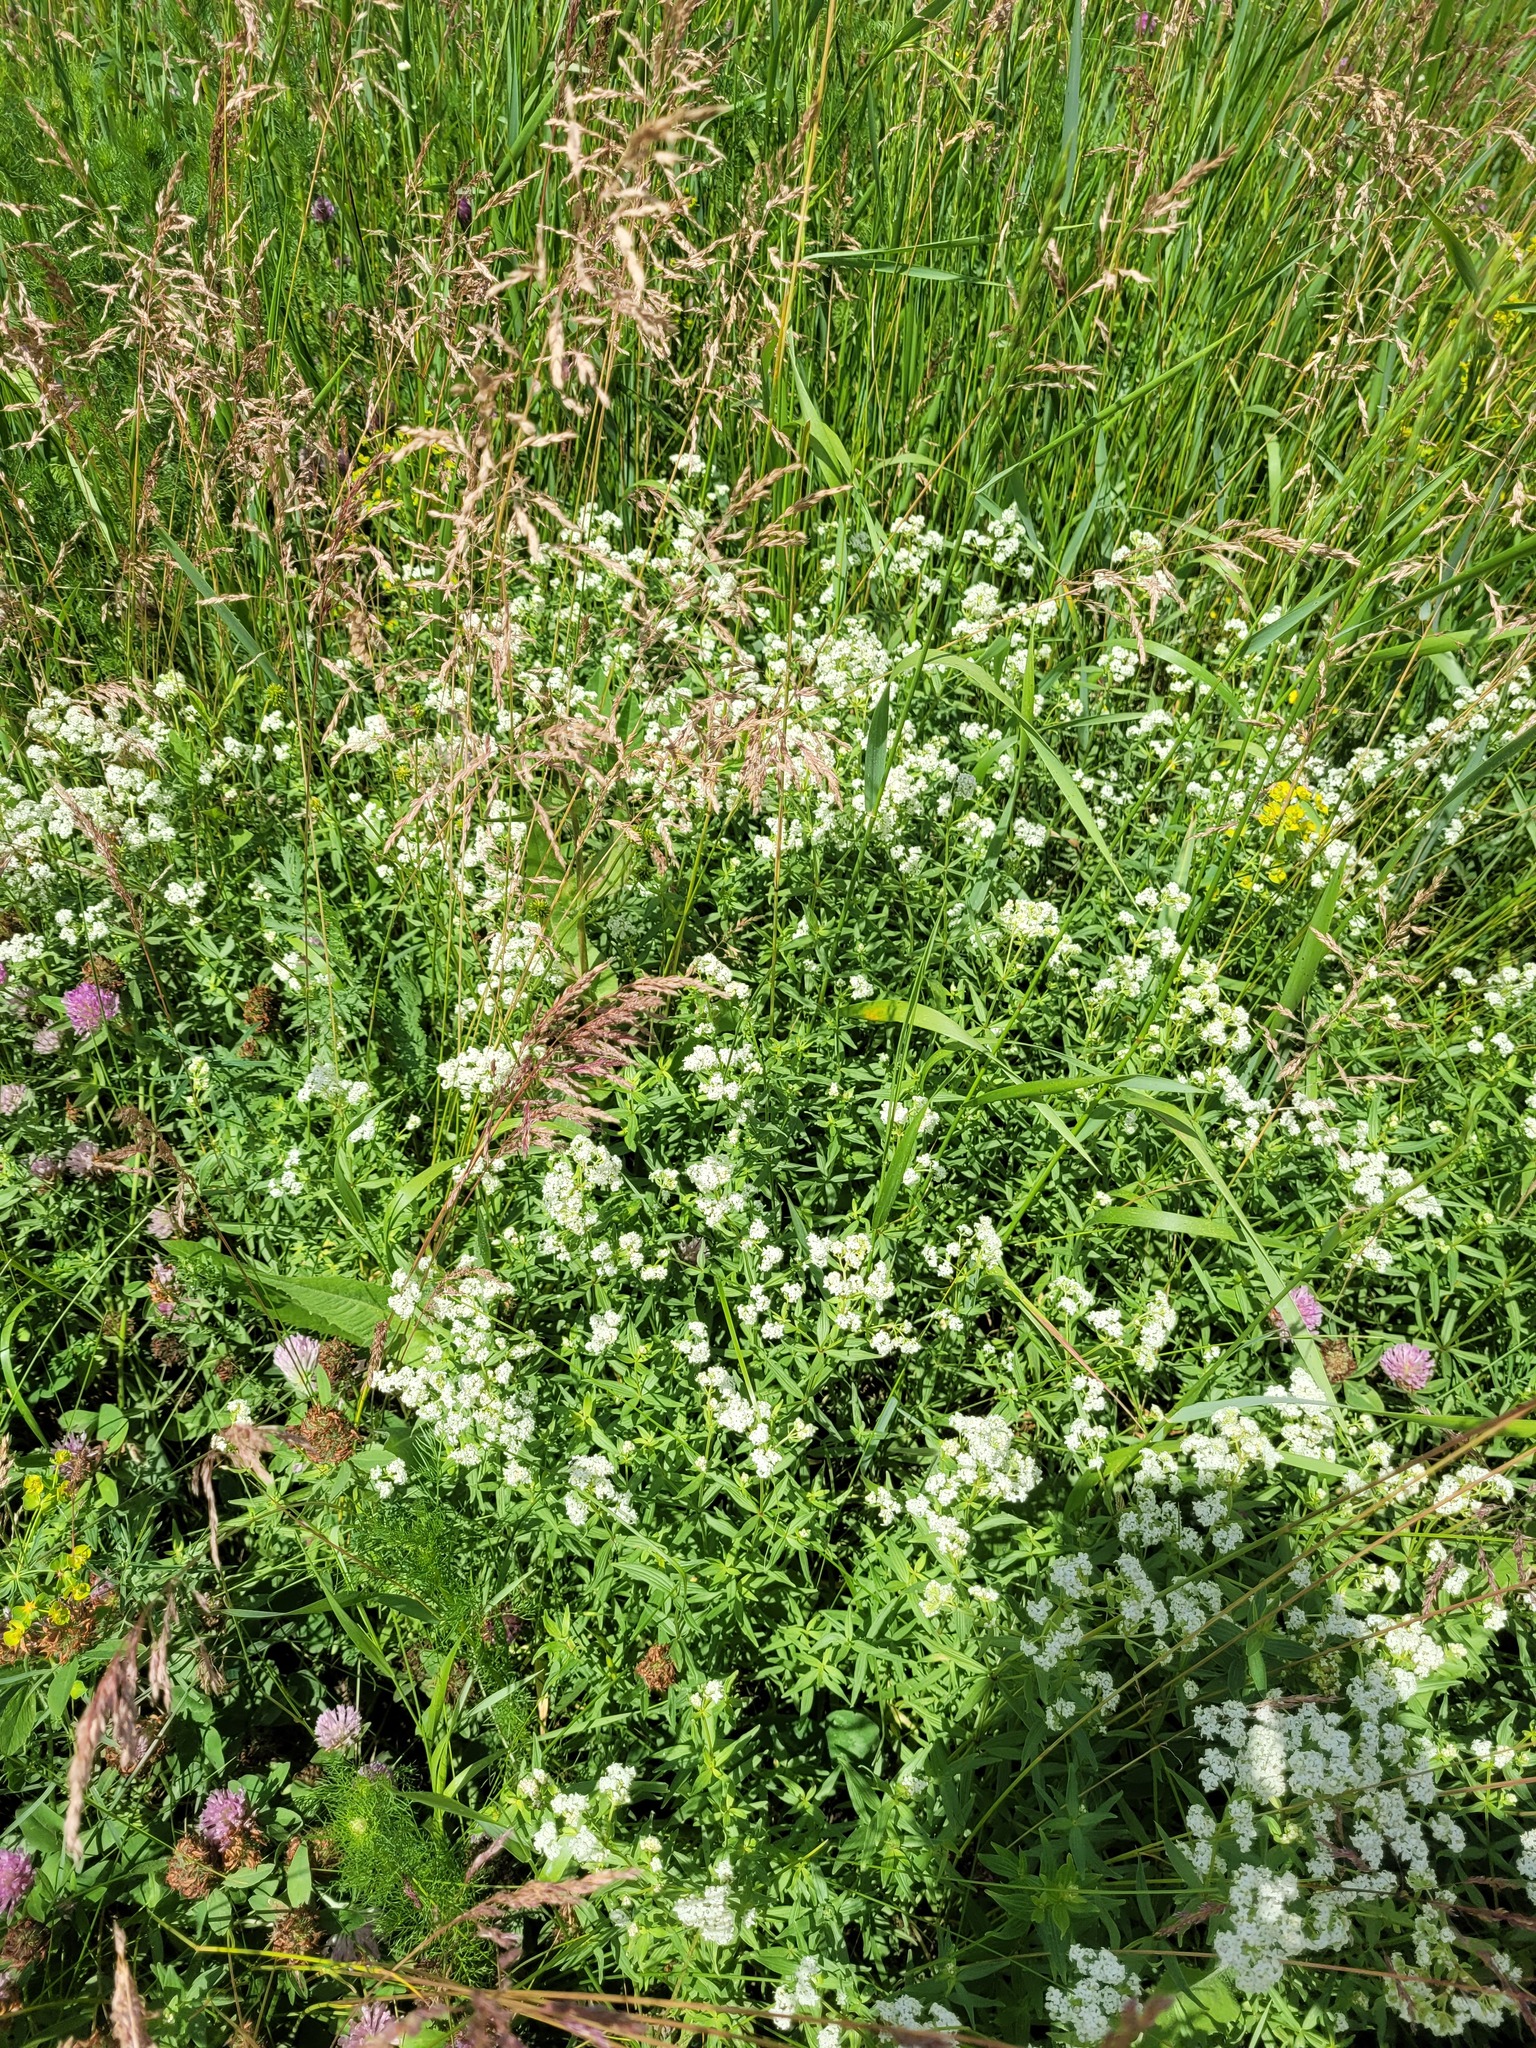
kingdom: Plantae
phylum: Tracheophyta
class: Magnoliopsida
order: Gentianales
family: Rubiaceae
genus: Galium
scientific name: Galium boreale
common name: Northern bedstraw
